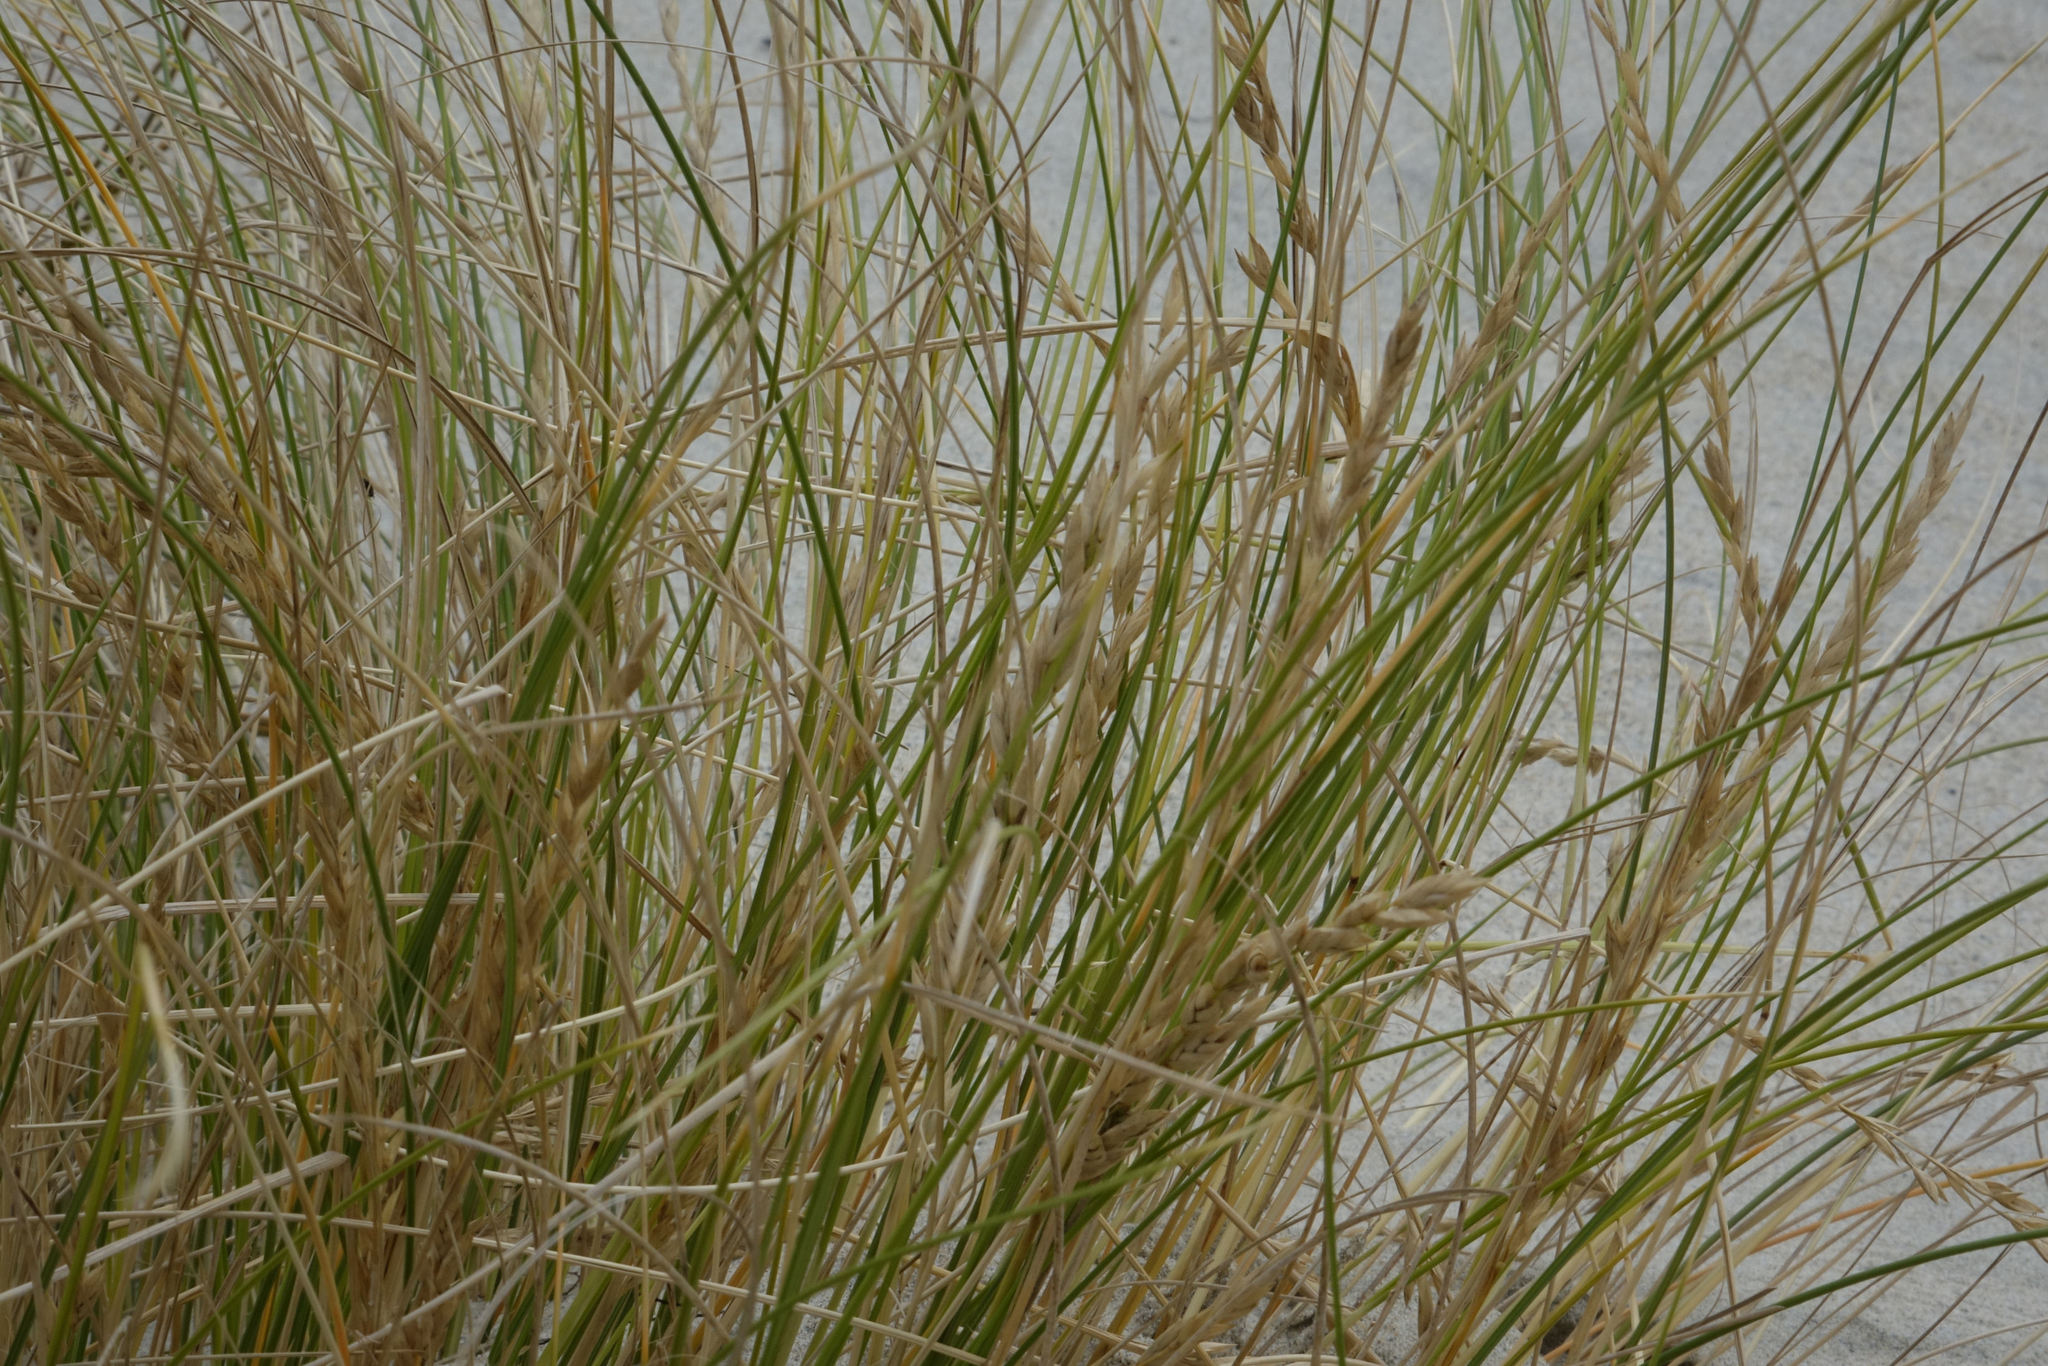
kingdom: Plantae
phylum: Tracheophyta
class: Liliopsida
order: Poales
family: Poaceae
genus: Poa
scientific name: Poa billardierei
